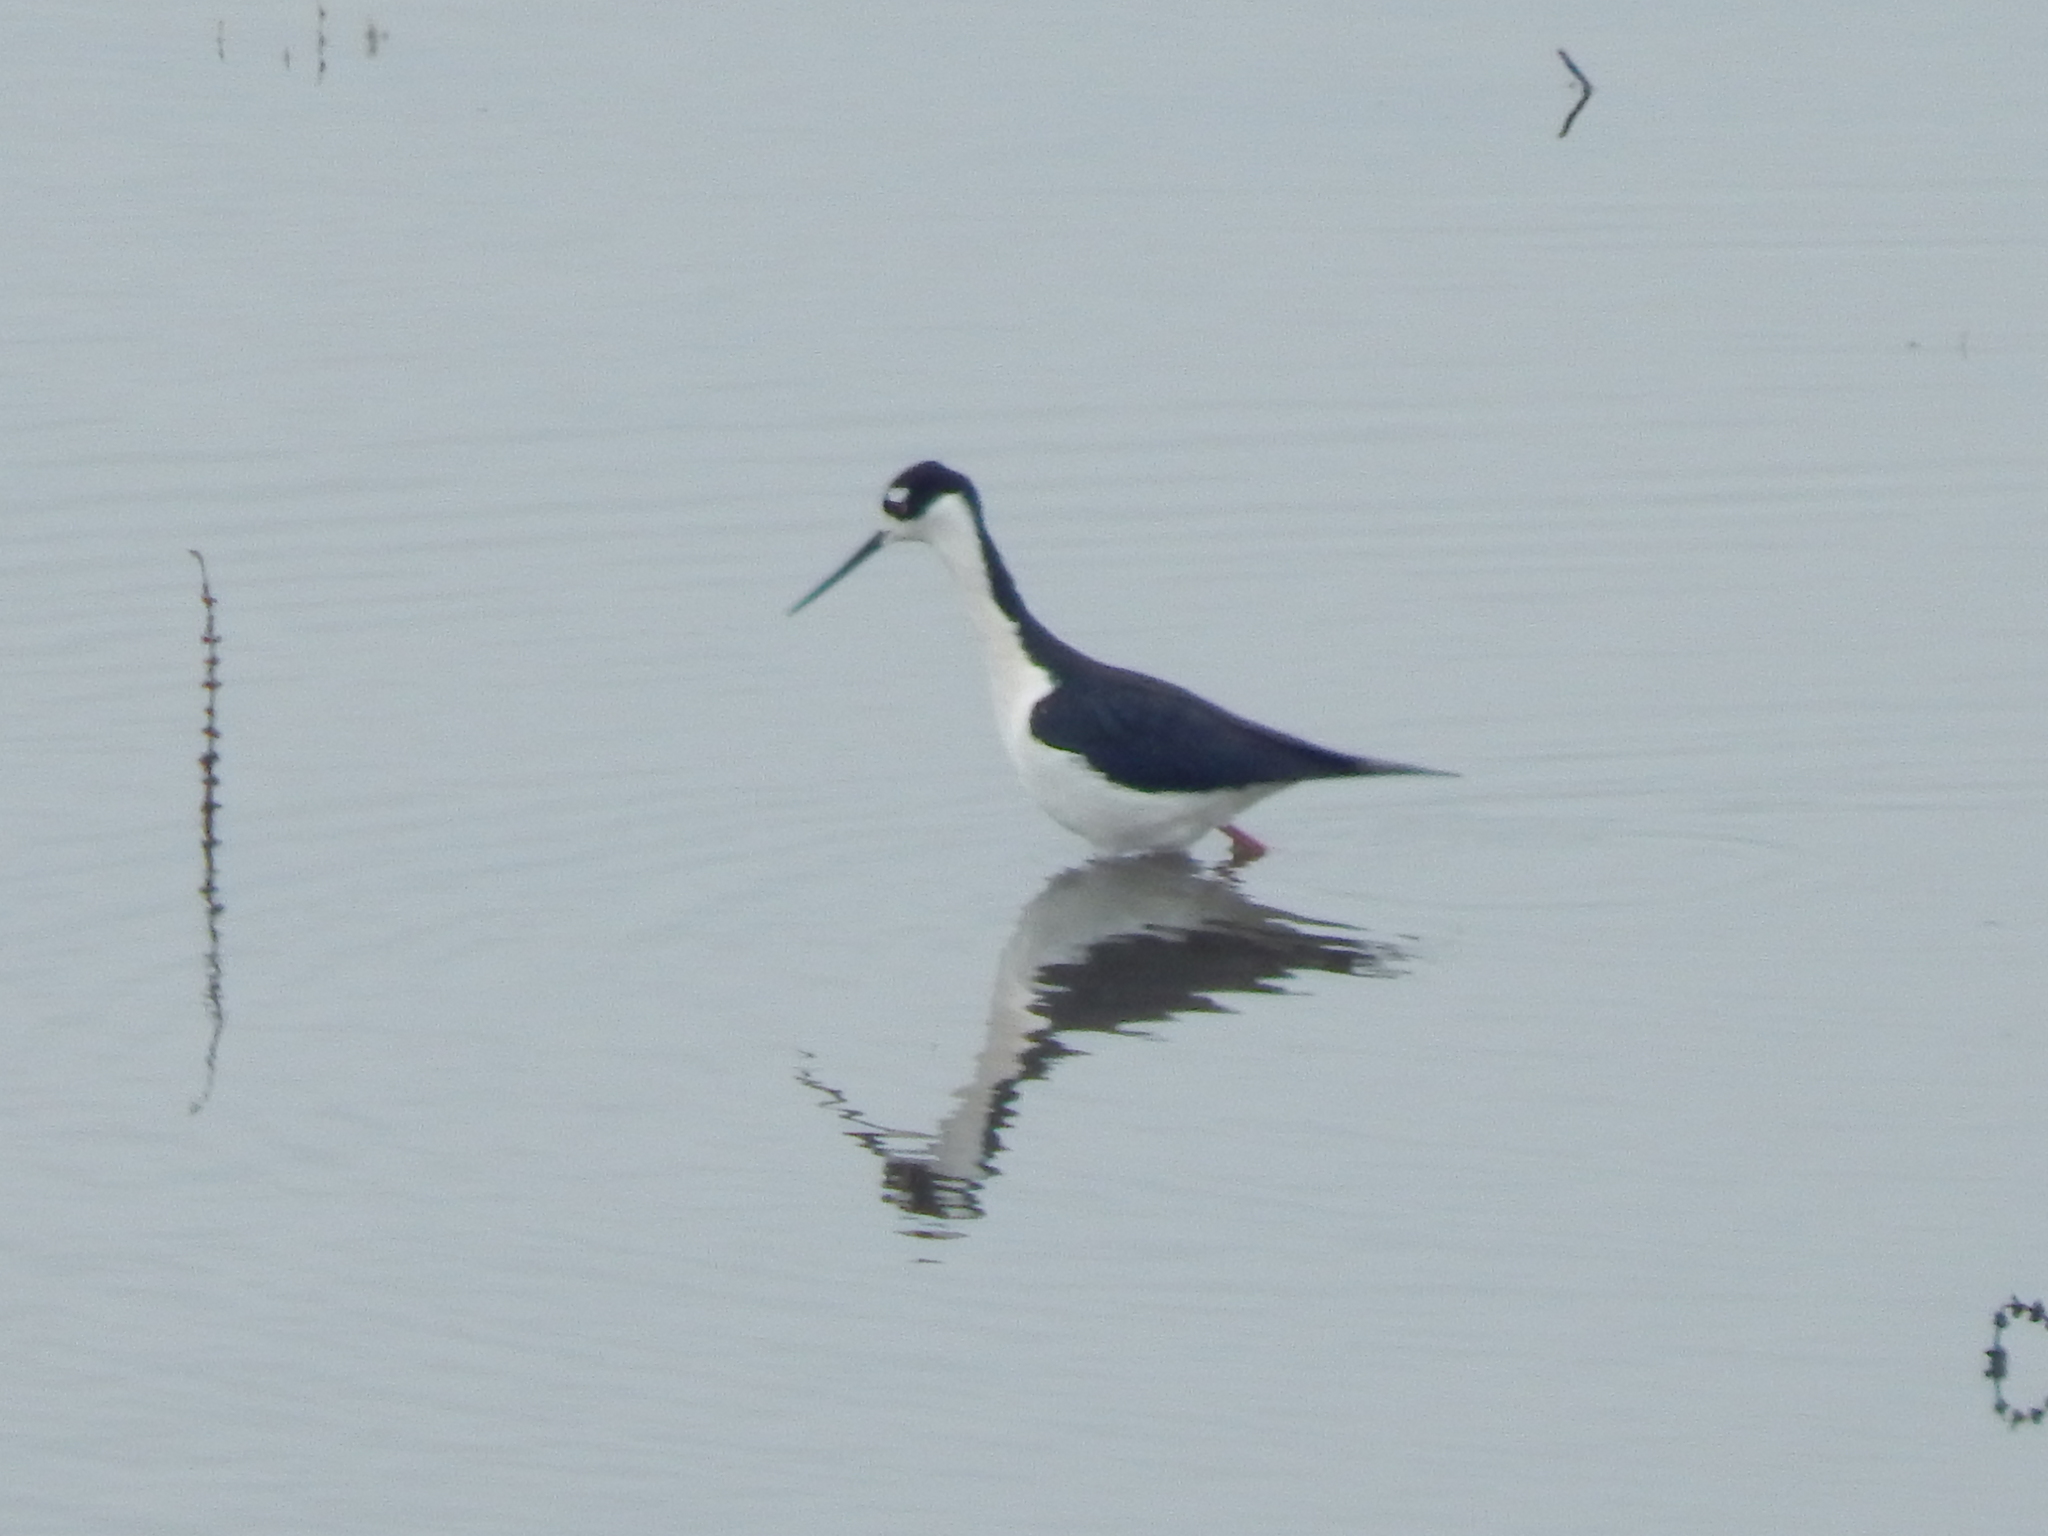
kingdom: Animalia
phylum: Chordata
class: Aves
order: Charadriiformes
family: Recurvirostridae
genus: Himantopus
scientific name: Himantopus mexicanus
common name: Black-necked stilt
